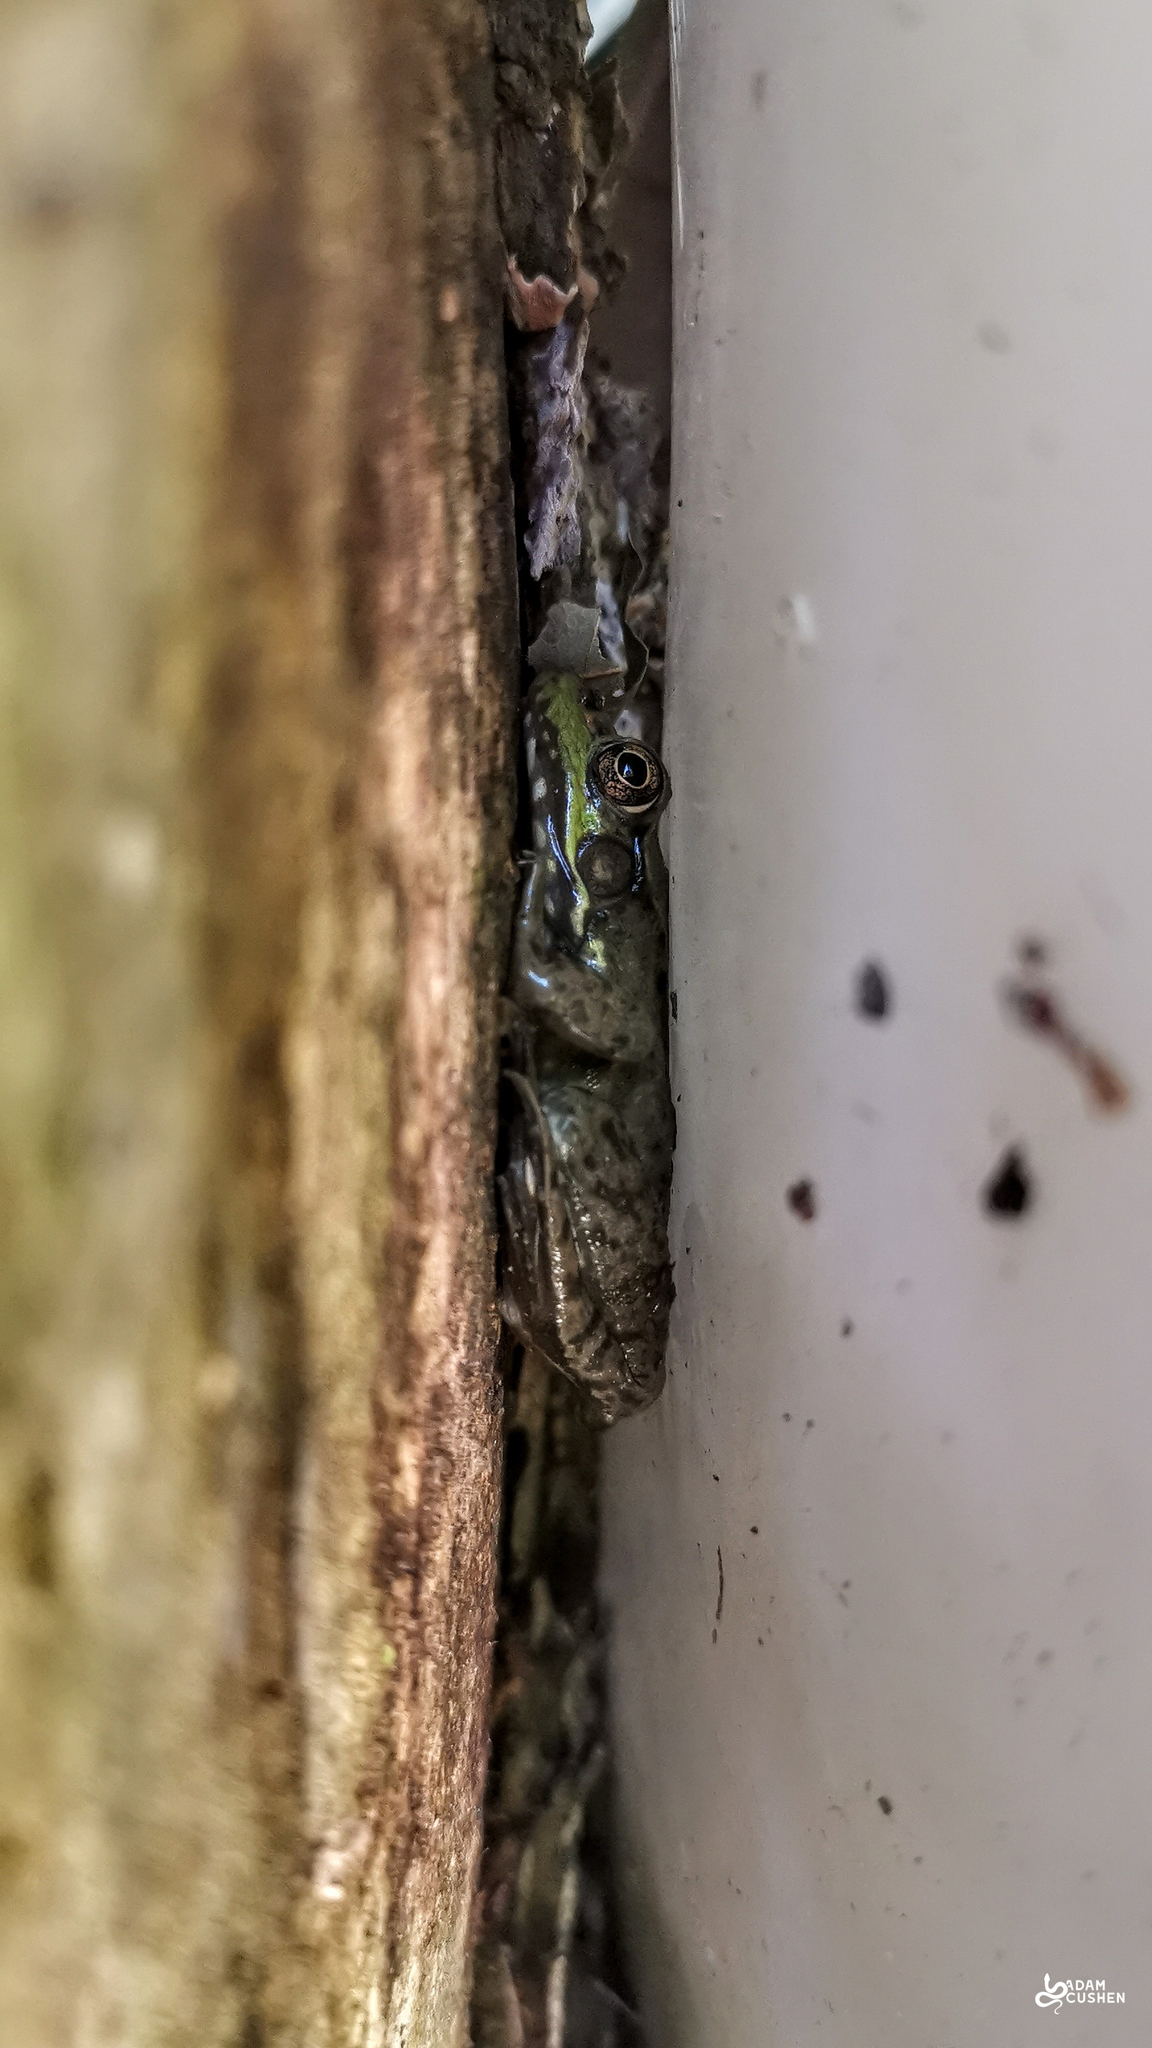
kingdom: Animalia
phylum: Chordata
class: Amphibia
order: Anura
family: Ranidae
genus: Lithobates
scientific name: Lithobates clamitans
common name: Green frog
